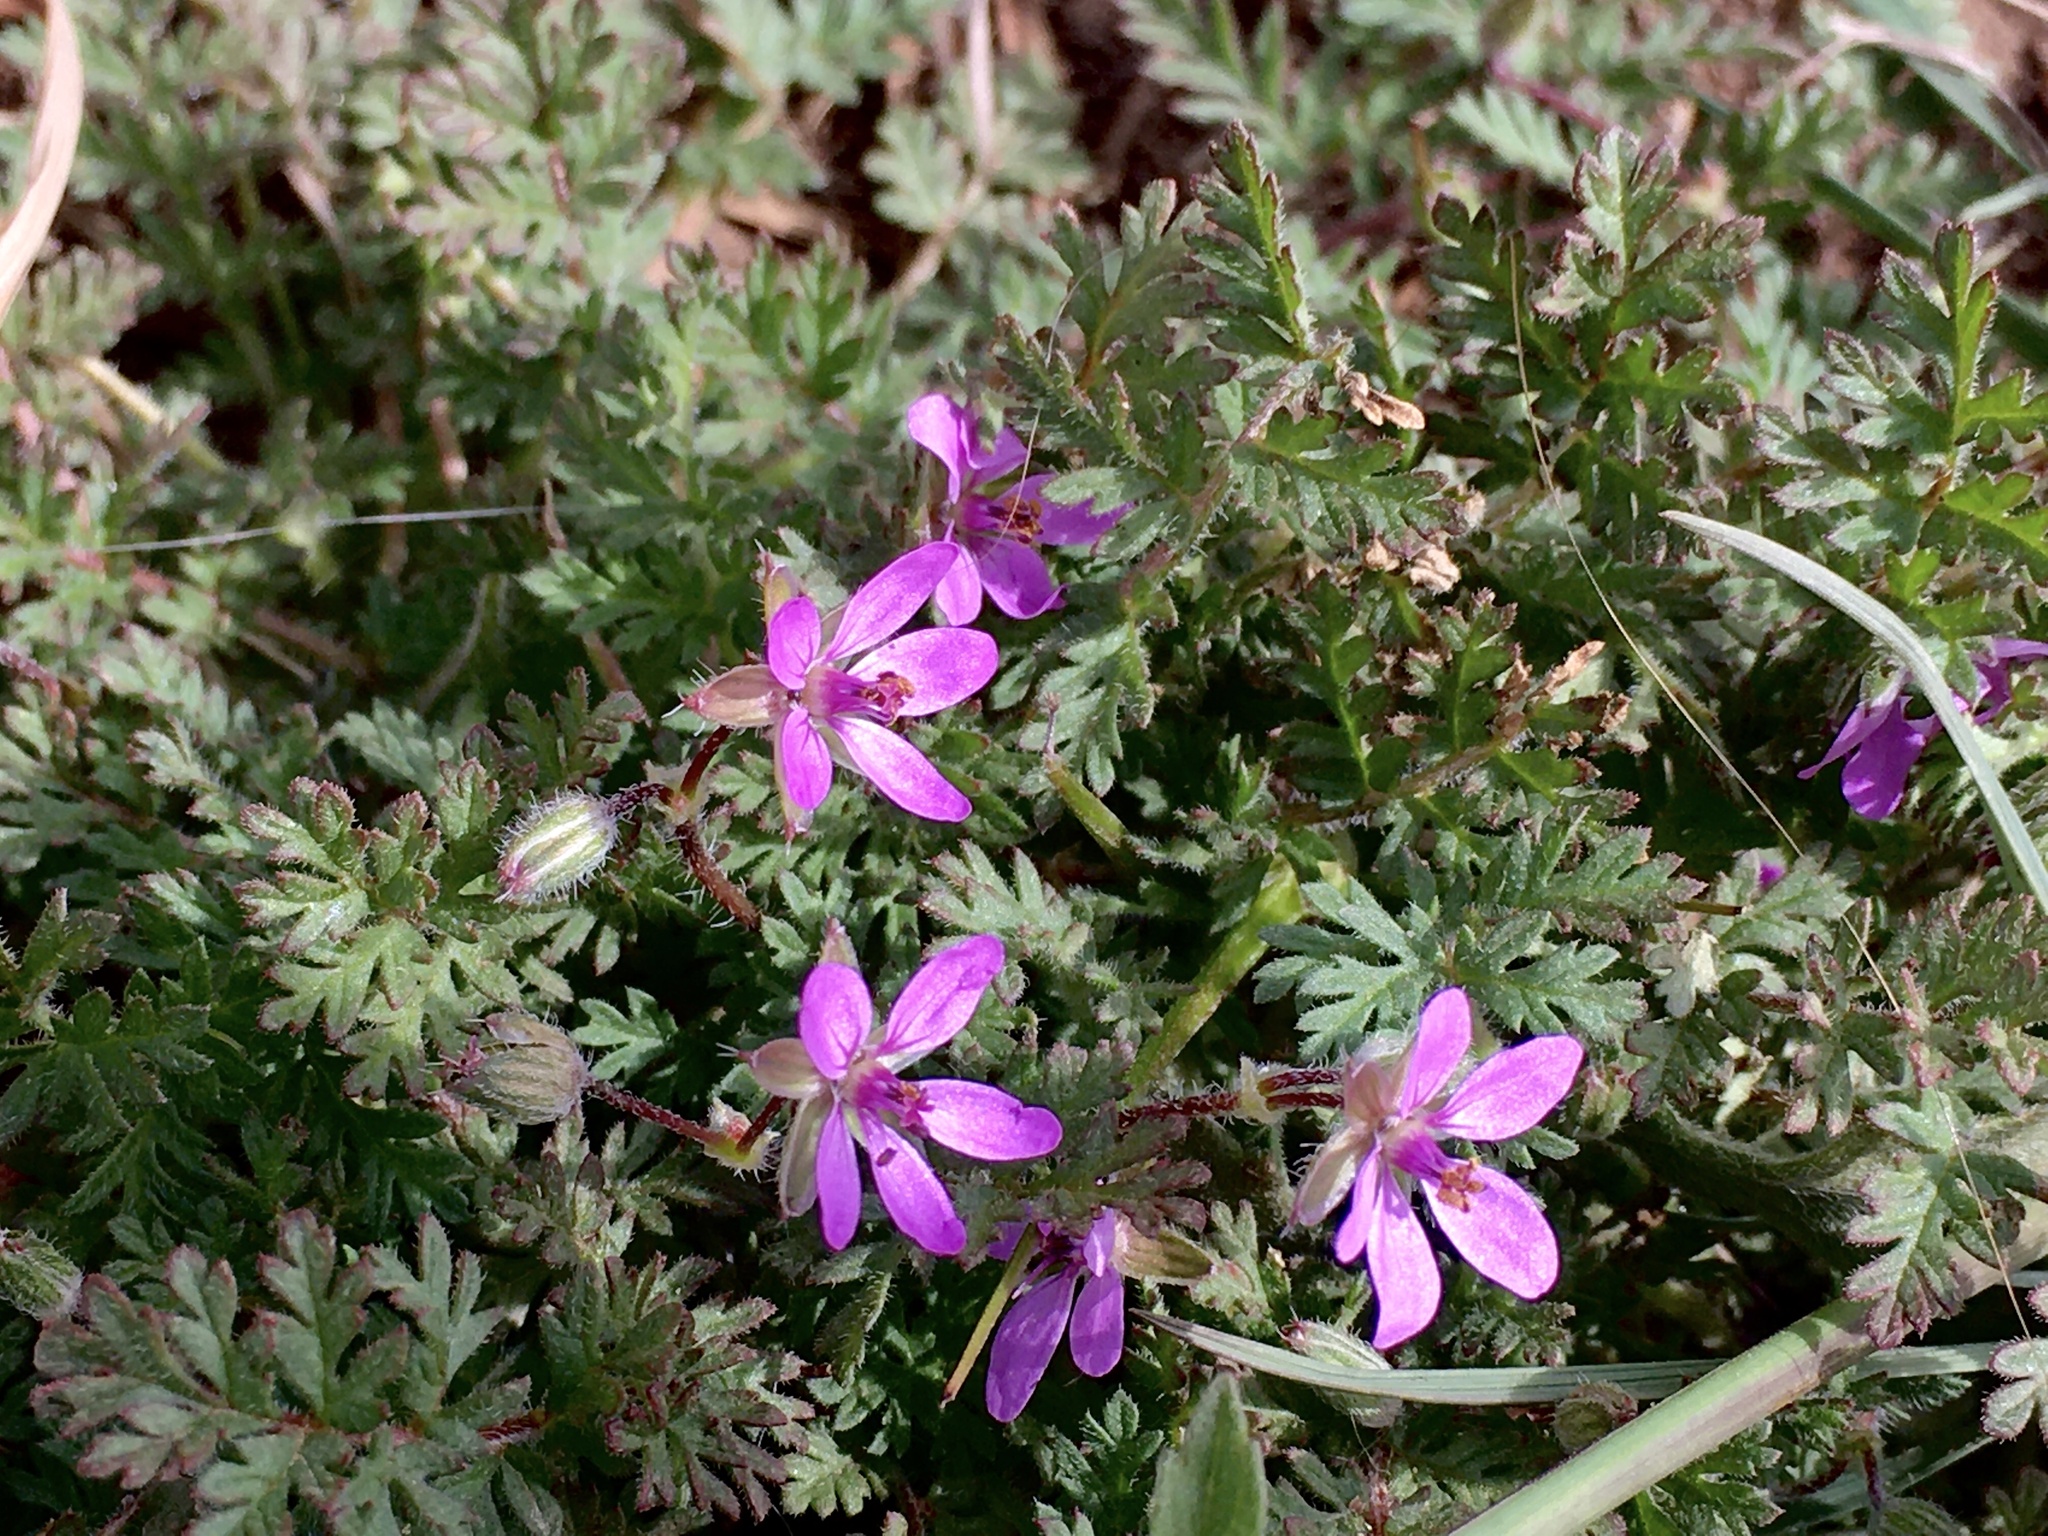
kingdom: Plantae
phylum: Tracheophyta
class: Magnoliopsida
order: Geraniales
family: Geraniaceae
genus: Erodium
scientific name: Erodium cicutarium
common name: Common stork's-bill
